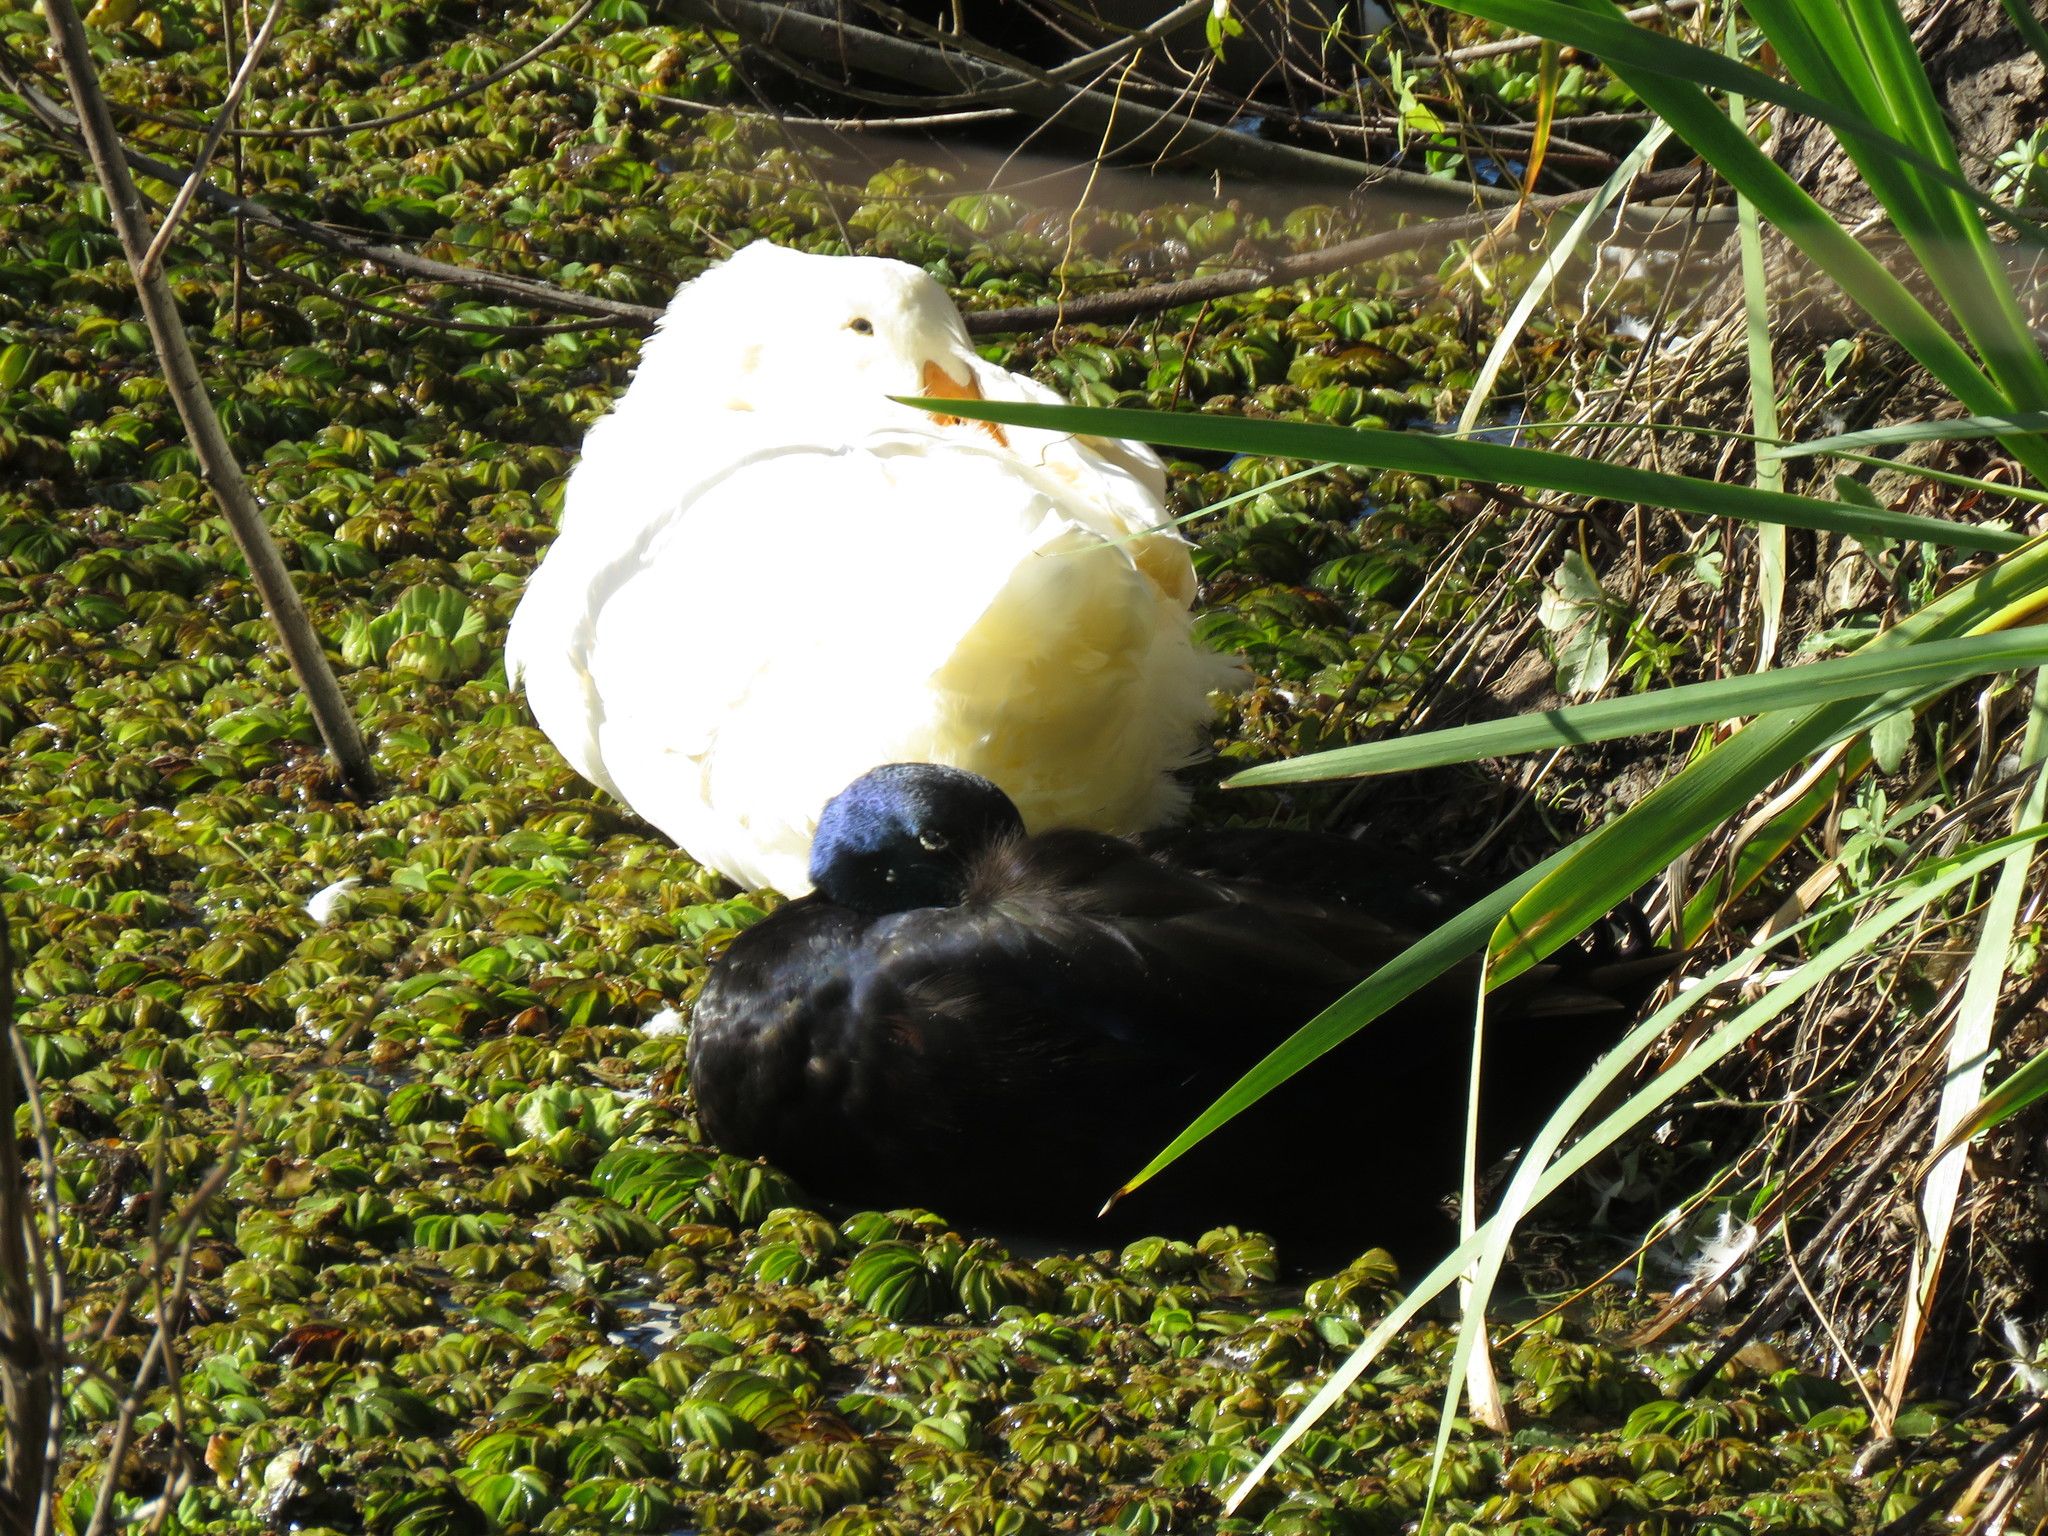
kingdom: Animalia
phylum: Chordata
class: Aves
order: Anseriformes
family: Anatidae
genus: Anas
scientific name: Anas platyrhynchos
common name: Mallard
